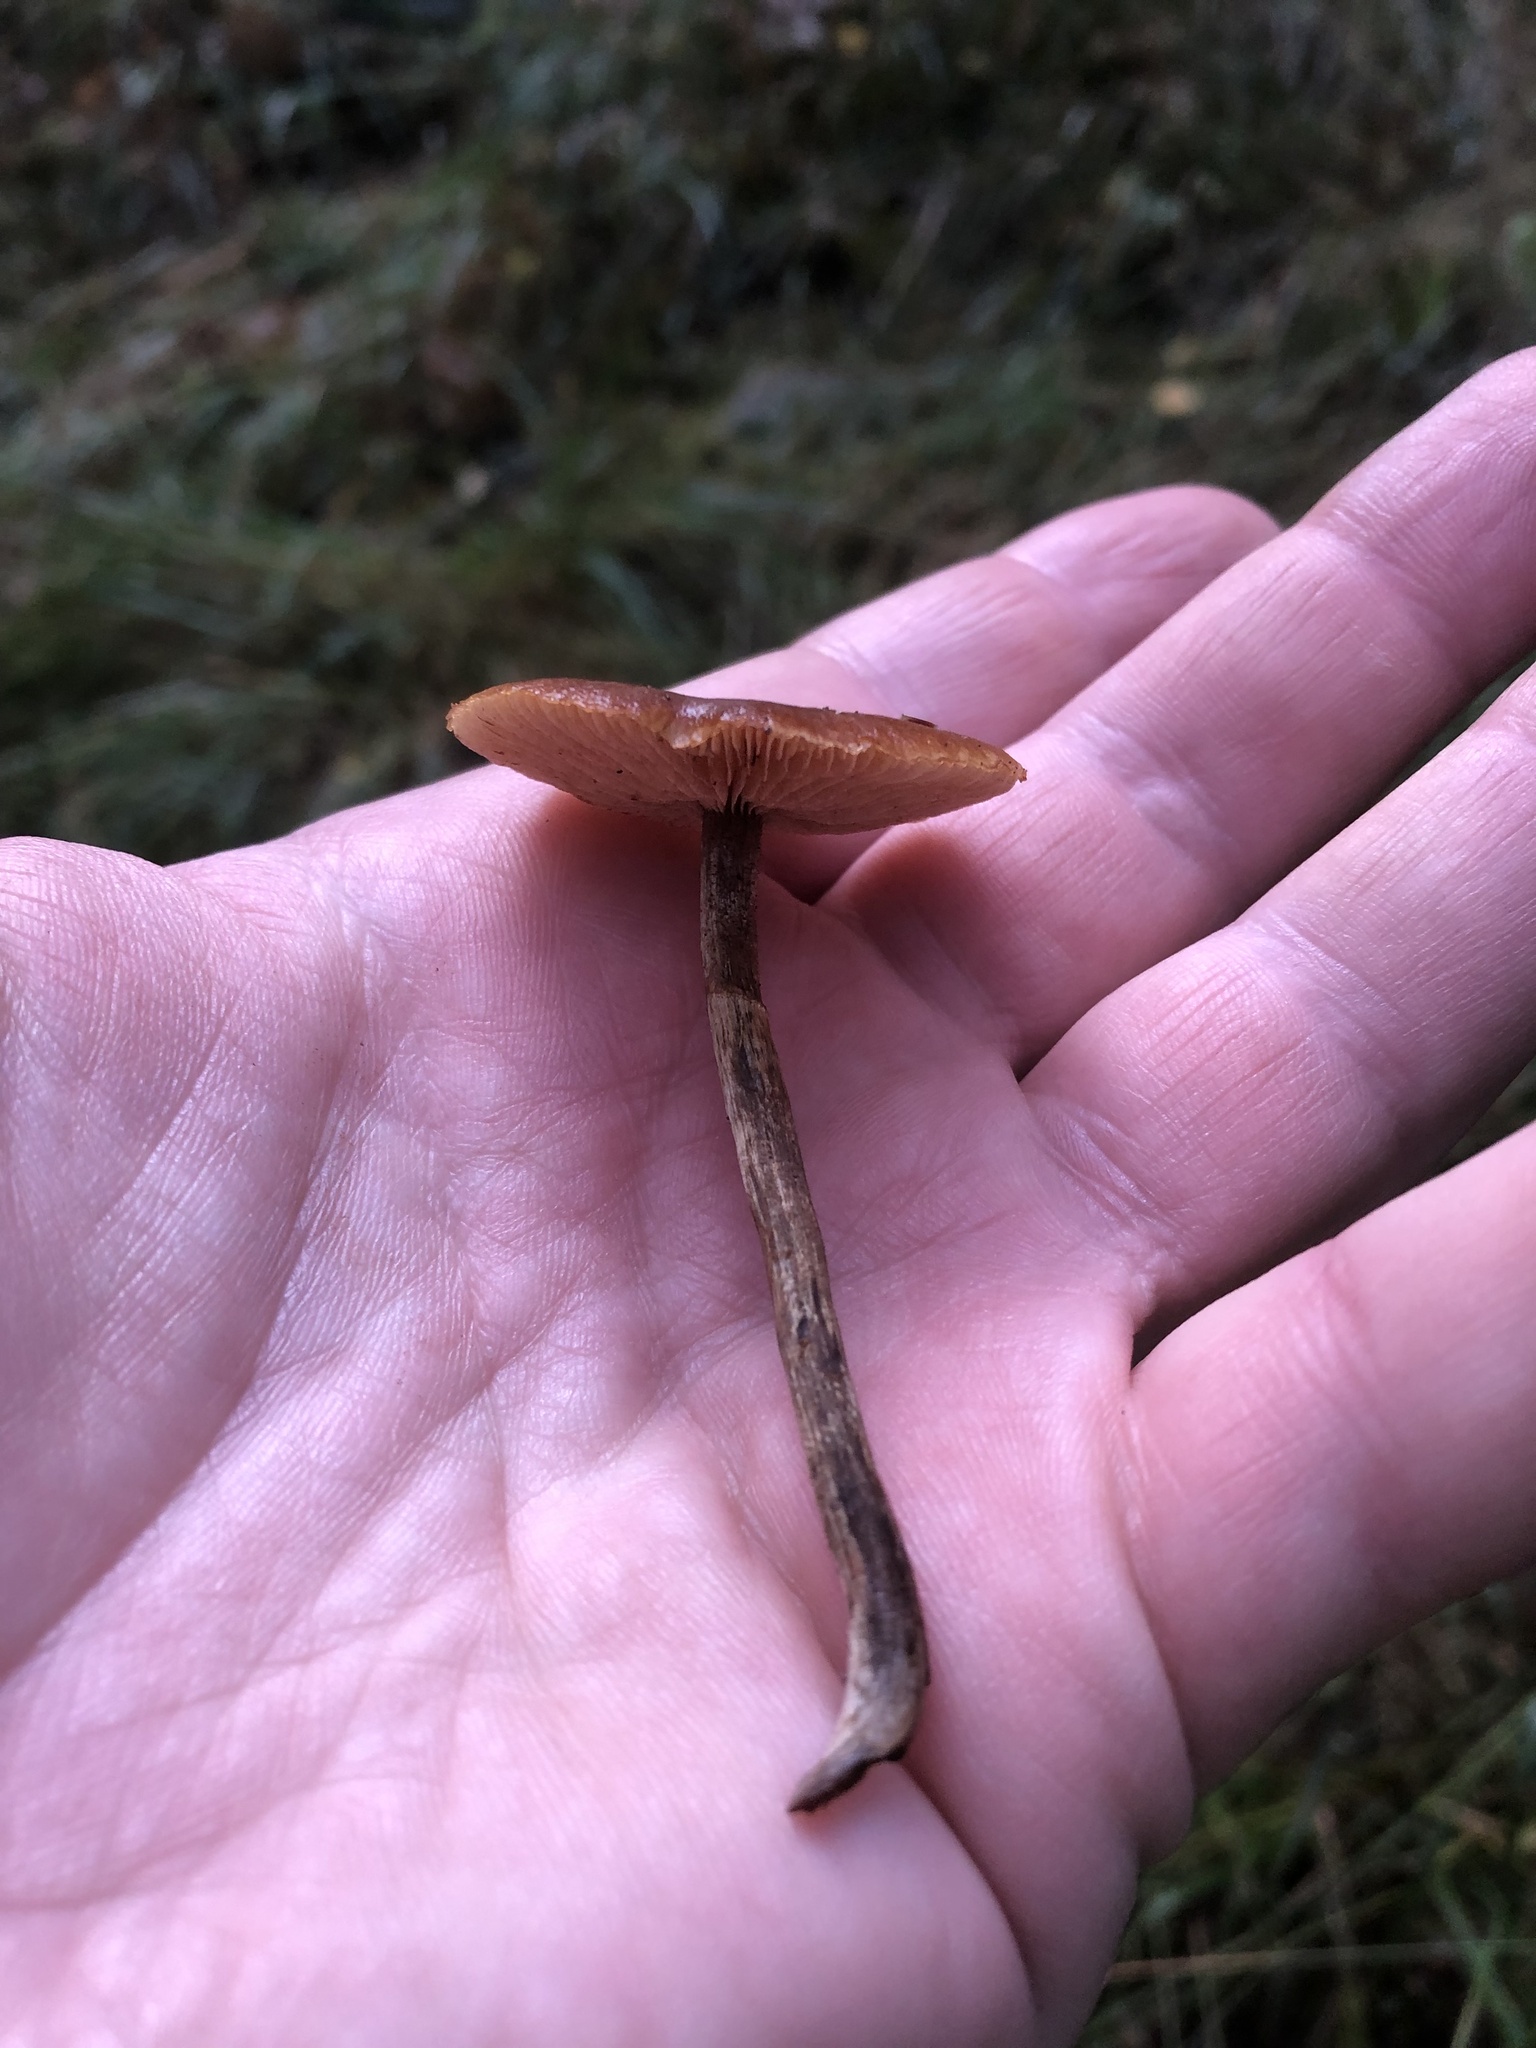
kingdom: Fungi
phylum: Basidiomycota
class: Agaricomycetes
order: Agaricales
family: Hymenogastraceae
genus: Galerina
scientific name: Galerina marginata
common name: Funeral bell
